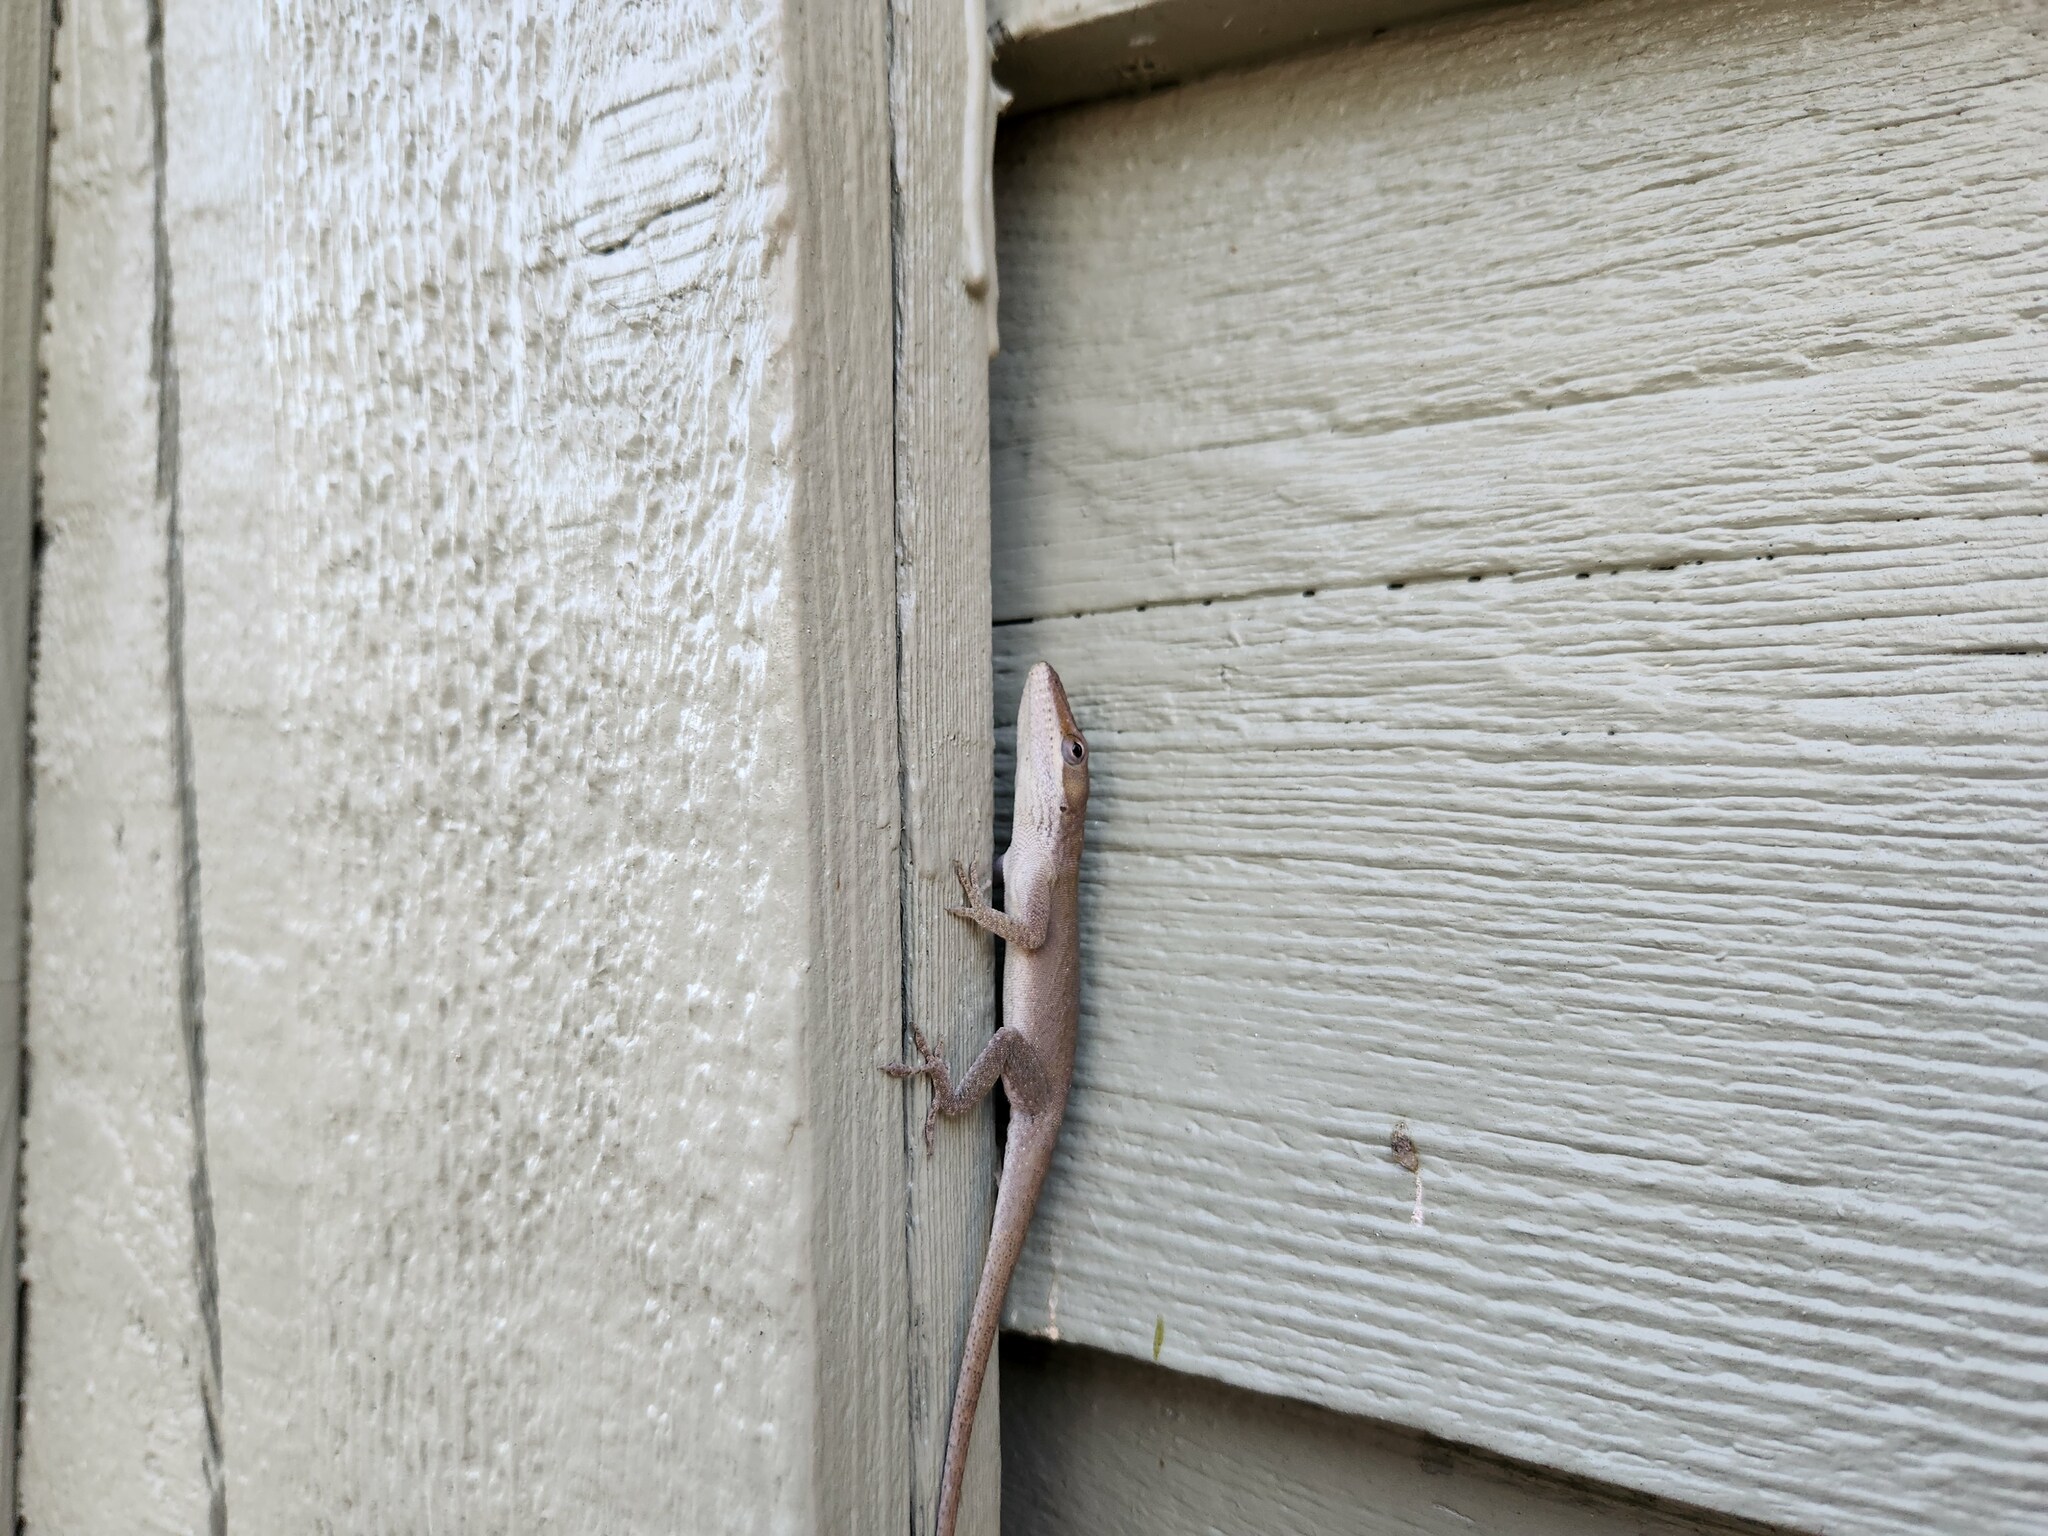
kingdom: Animalia
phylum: Chordata
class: Squamata
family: Dactyloidae
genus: Anolis
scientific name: Anolis carolinensis
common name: Green anole
